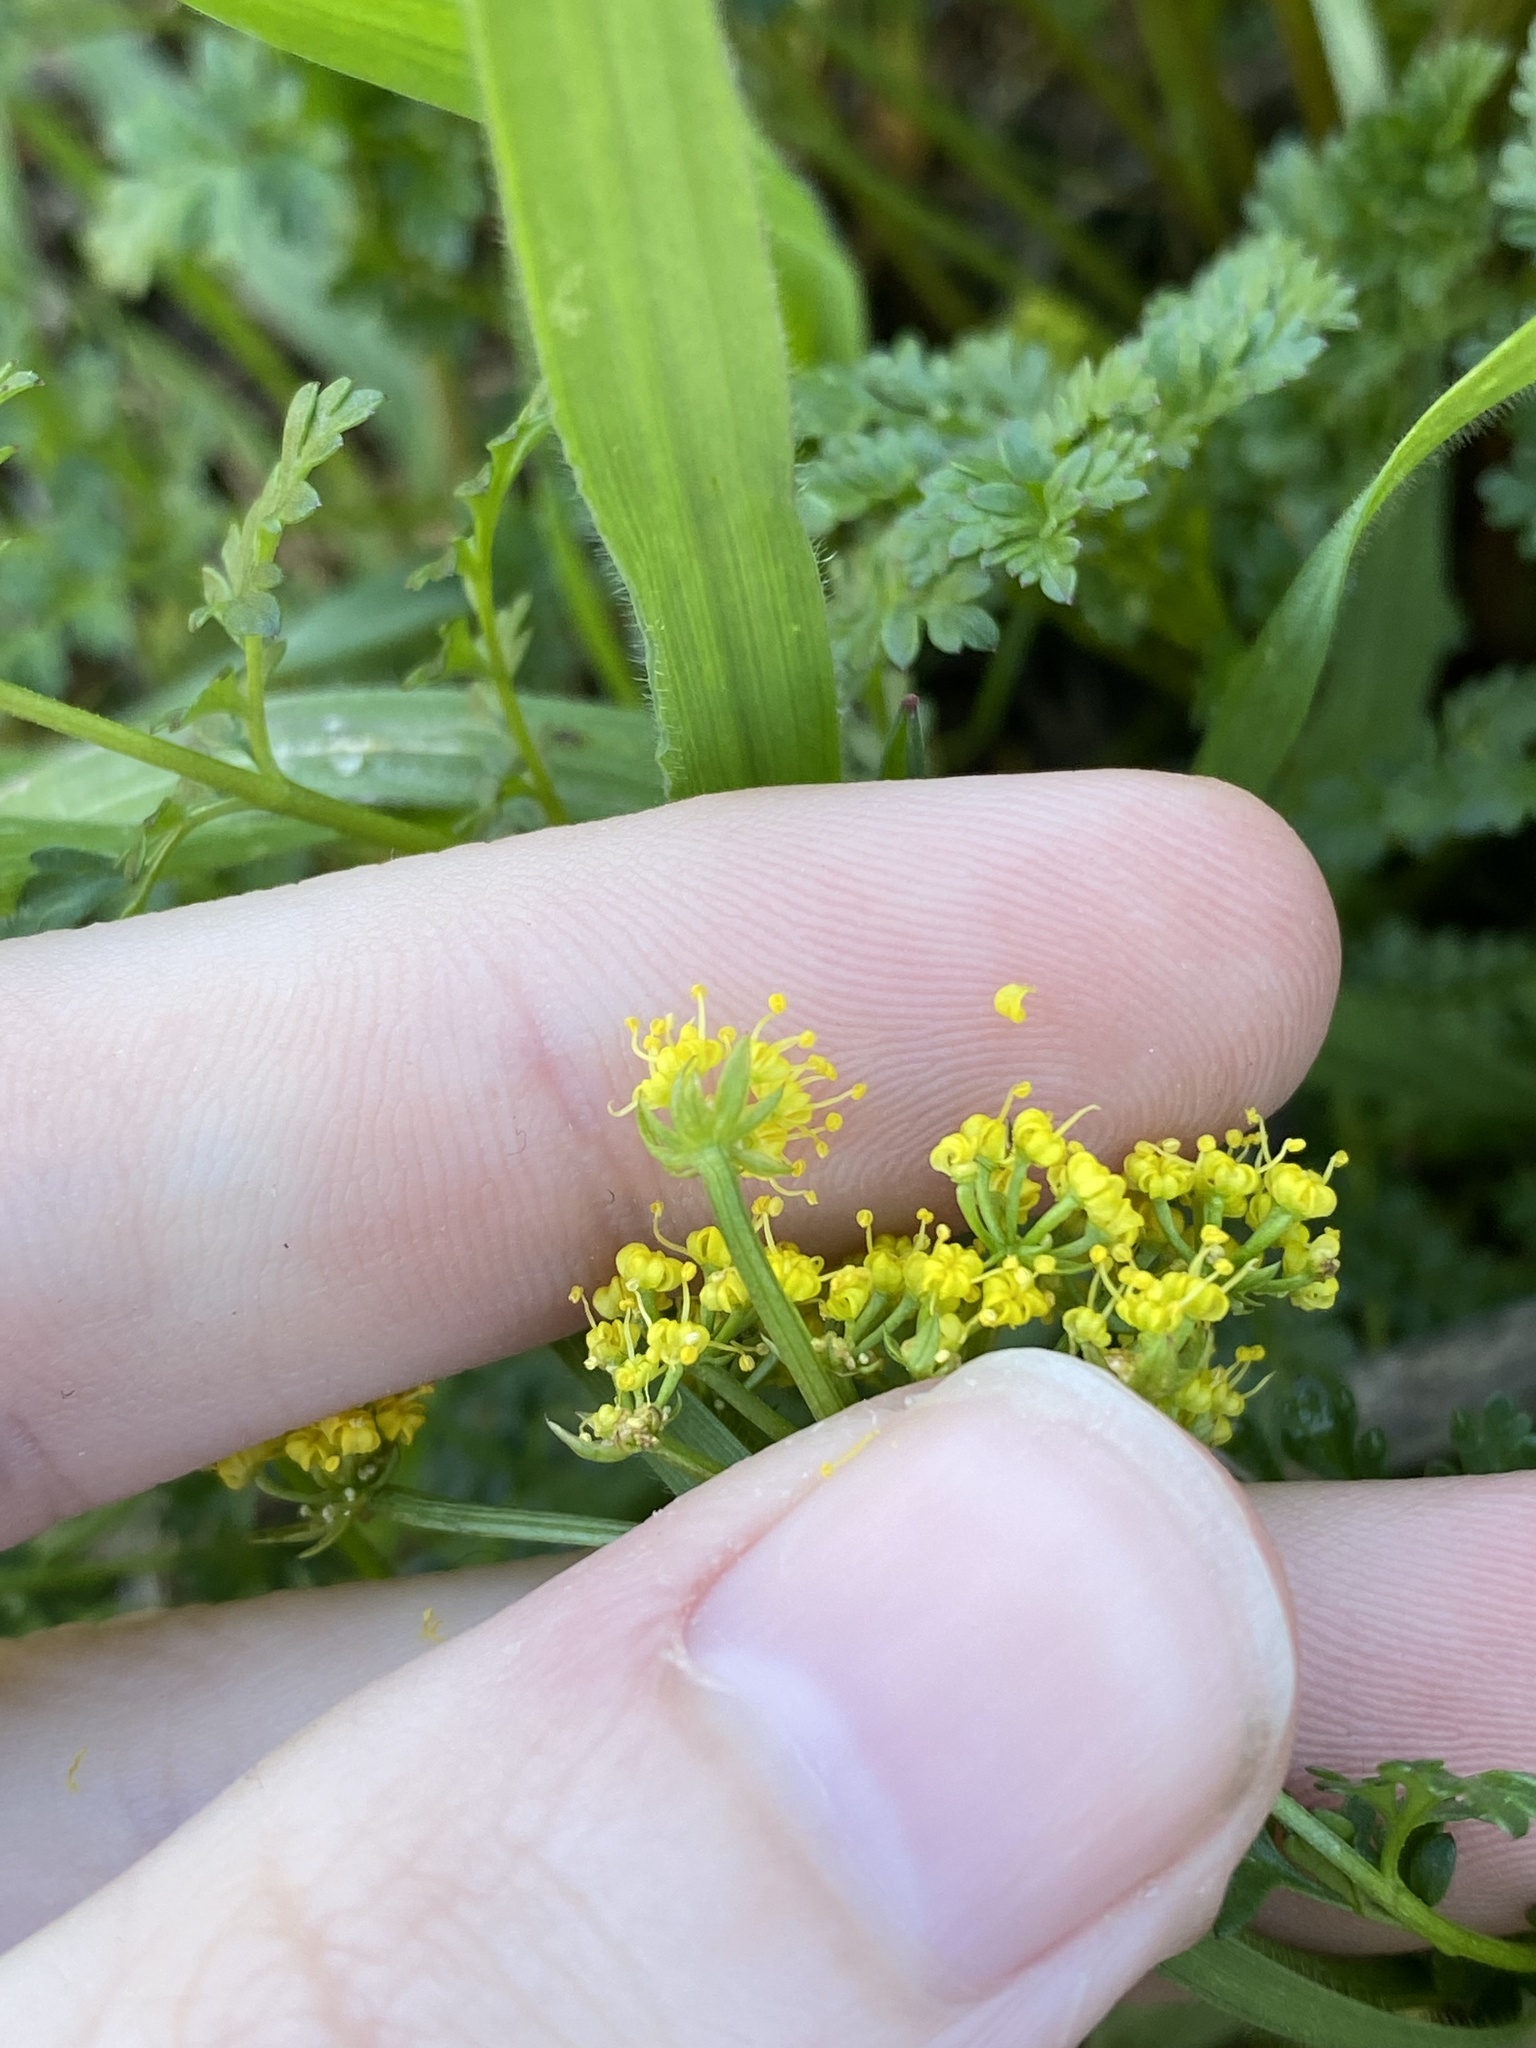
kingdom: Plantae
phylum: Tracheophyta
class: Magnoliopsida
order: Apiales
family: Apiaceae
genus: Lomatium
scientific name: Lomatium serpentinum
